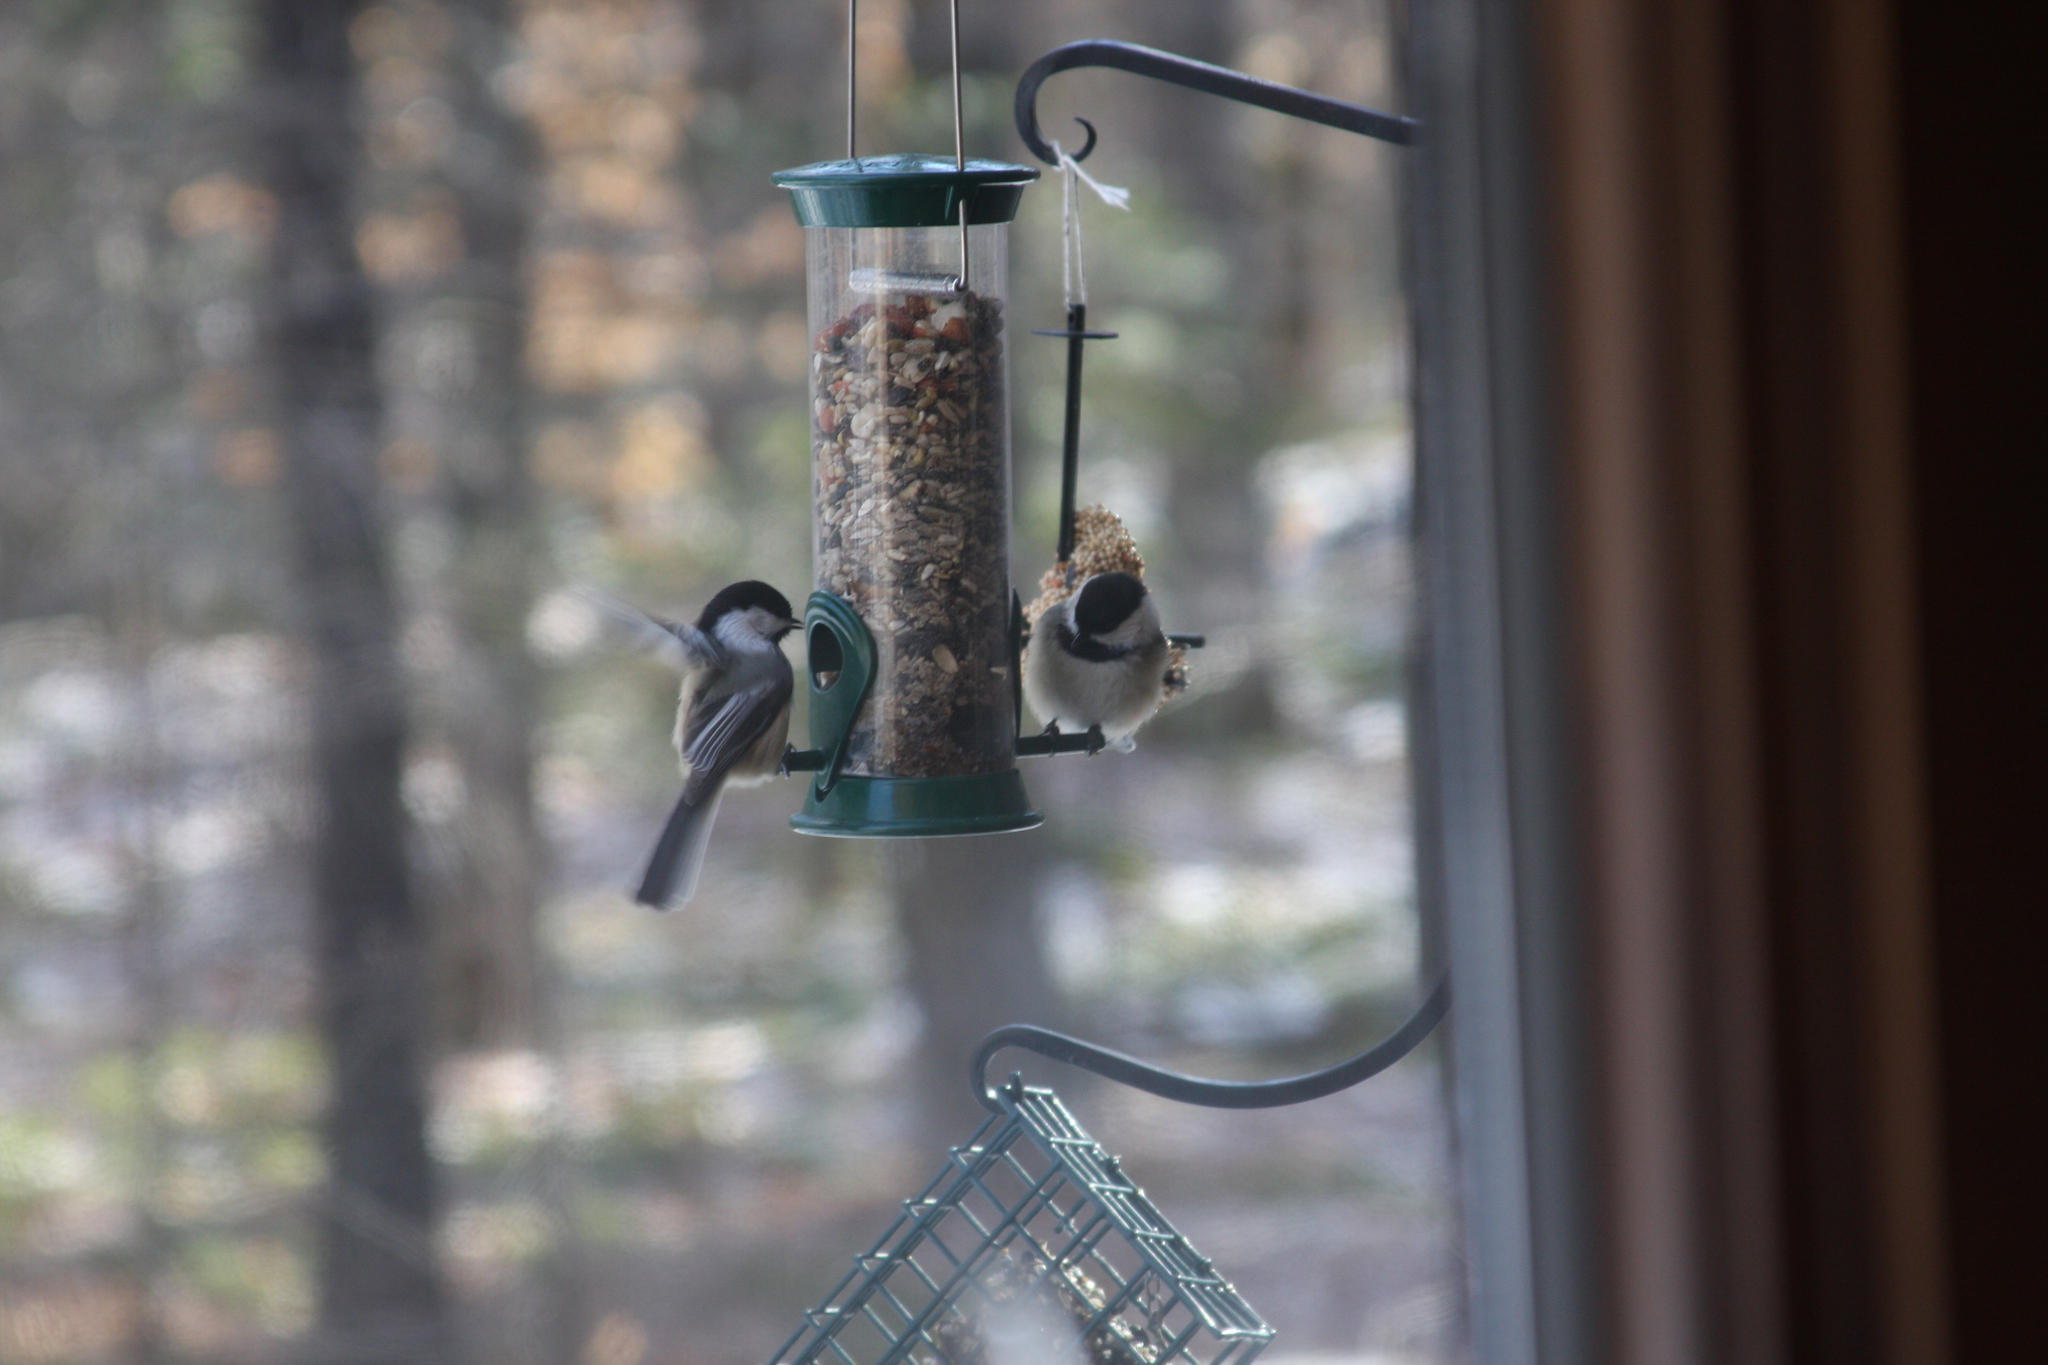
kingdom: Animalia
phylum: Chordata
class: Aves
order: Passeriformes
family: Paridae
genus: Poecile
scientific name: Poecile atricapillus
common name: Black-capped chickadee
